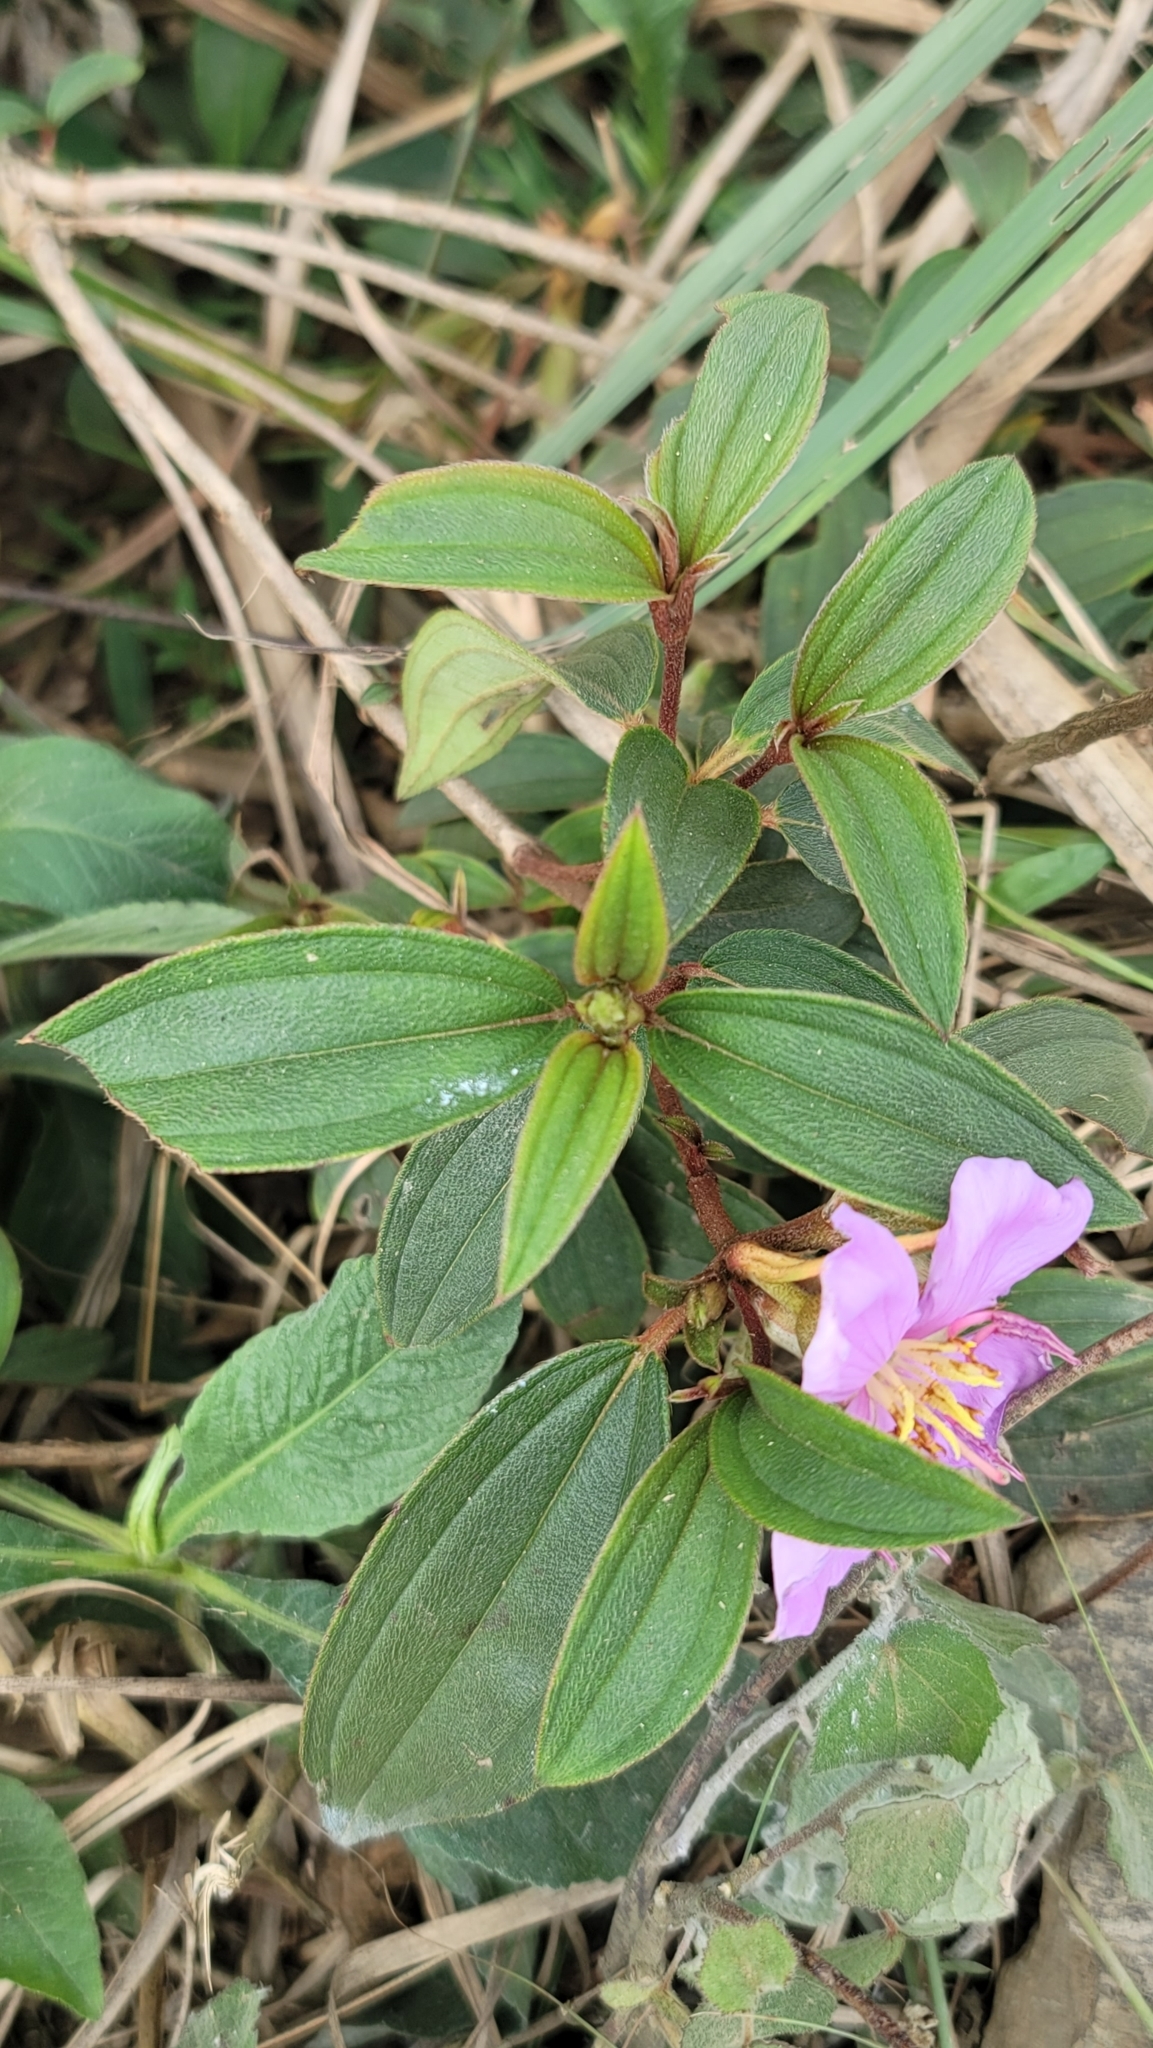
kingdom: Plantae
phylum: Tracheophyta
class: Magnoliopsida
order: Myrtales
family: Melastomataceae
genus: Melastoma
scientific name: Melastoma malabathricum
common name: Indian-rhododendron
